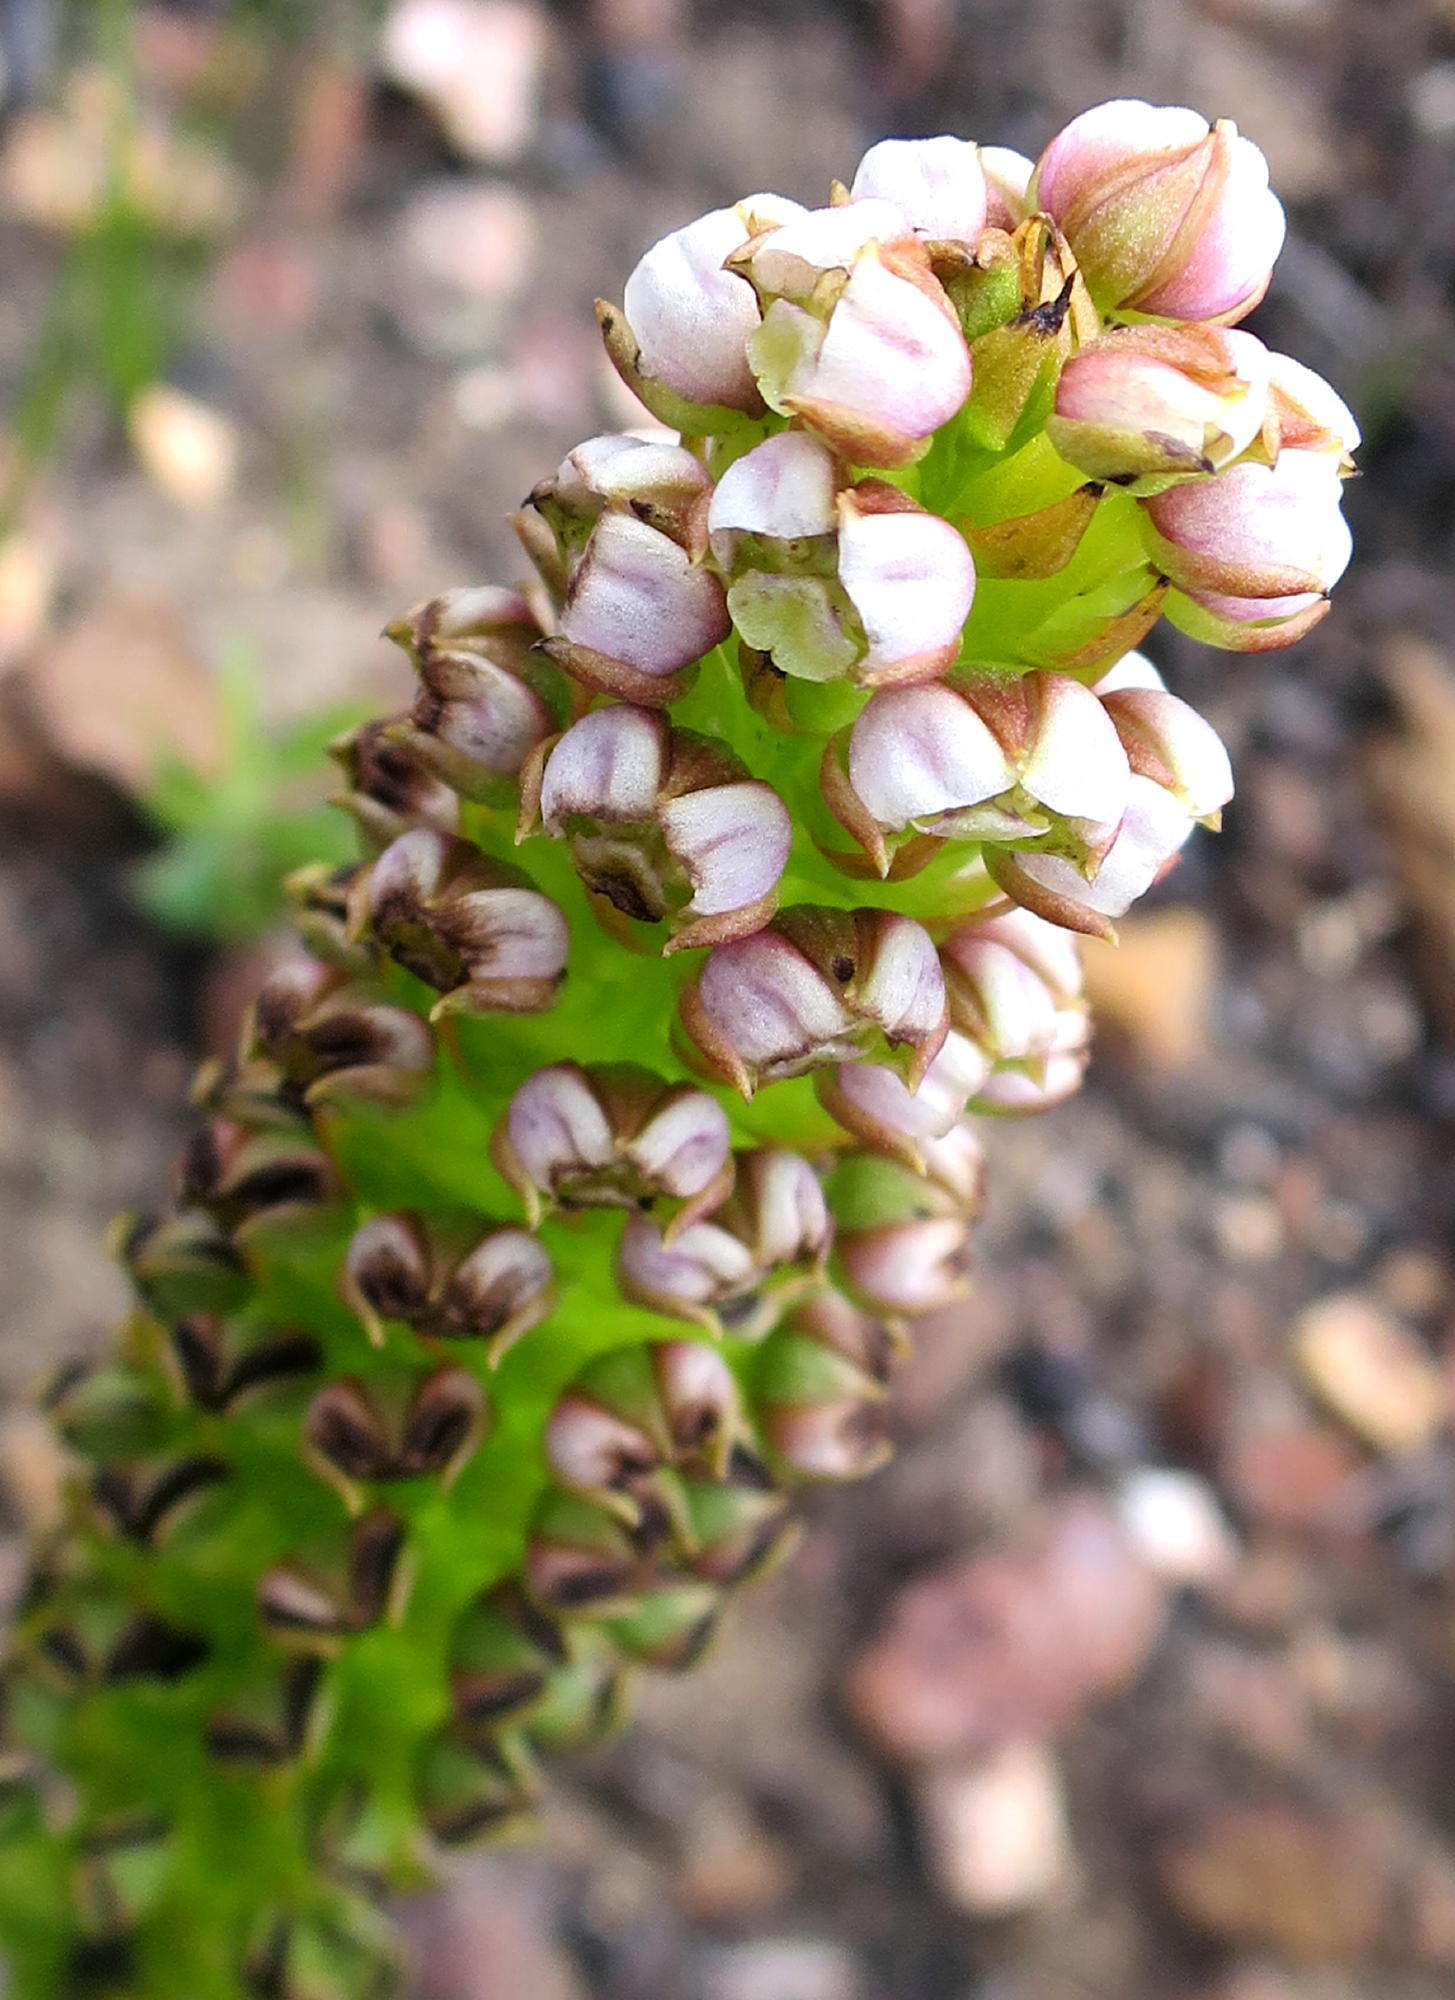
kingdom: Plantae
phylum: Tracheophyta
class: Liliopsida
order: Asparagales
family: Orchidaceae
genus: Evotella
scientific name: Evotella carnosa
